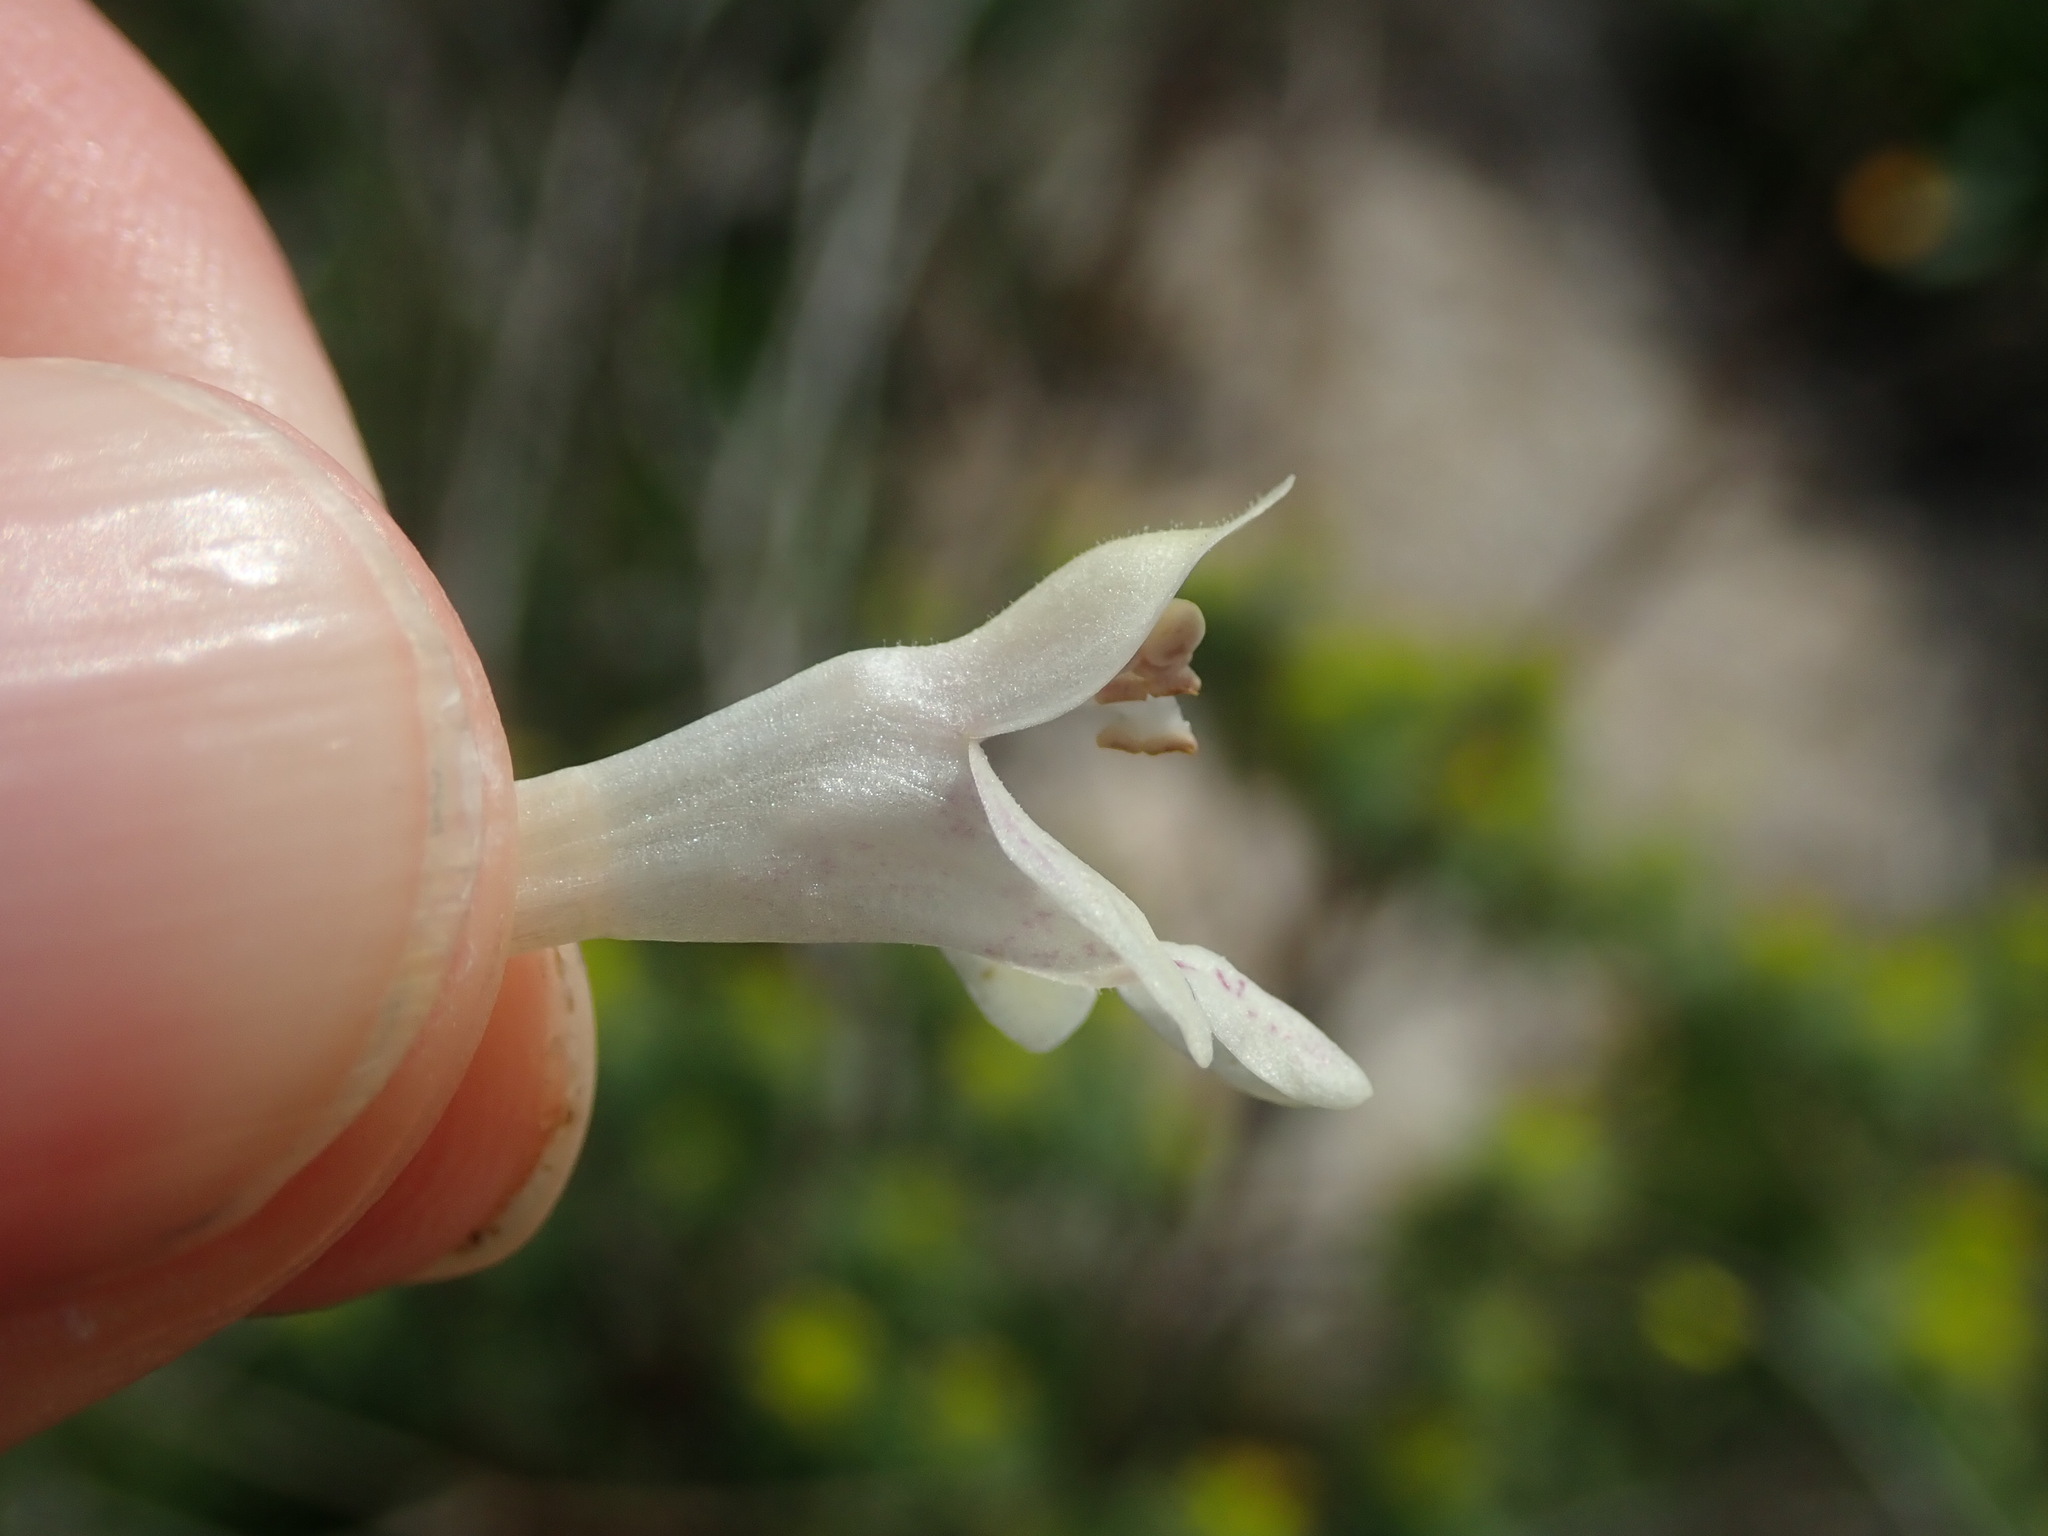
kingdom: Plantae
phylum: Tracheophyta
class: Magnoliopsida
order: Lamiales
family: Lamiaceae
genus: Prasium
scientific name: Prasium majus
